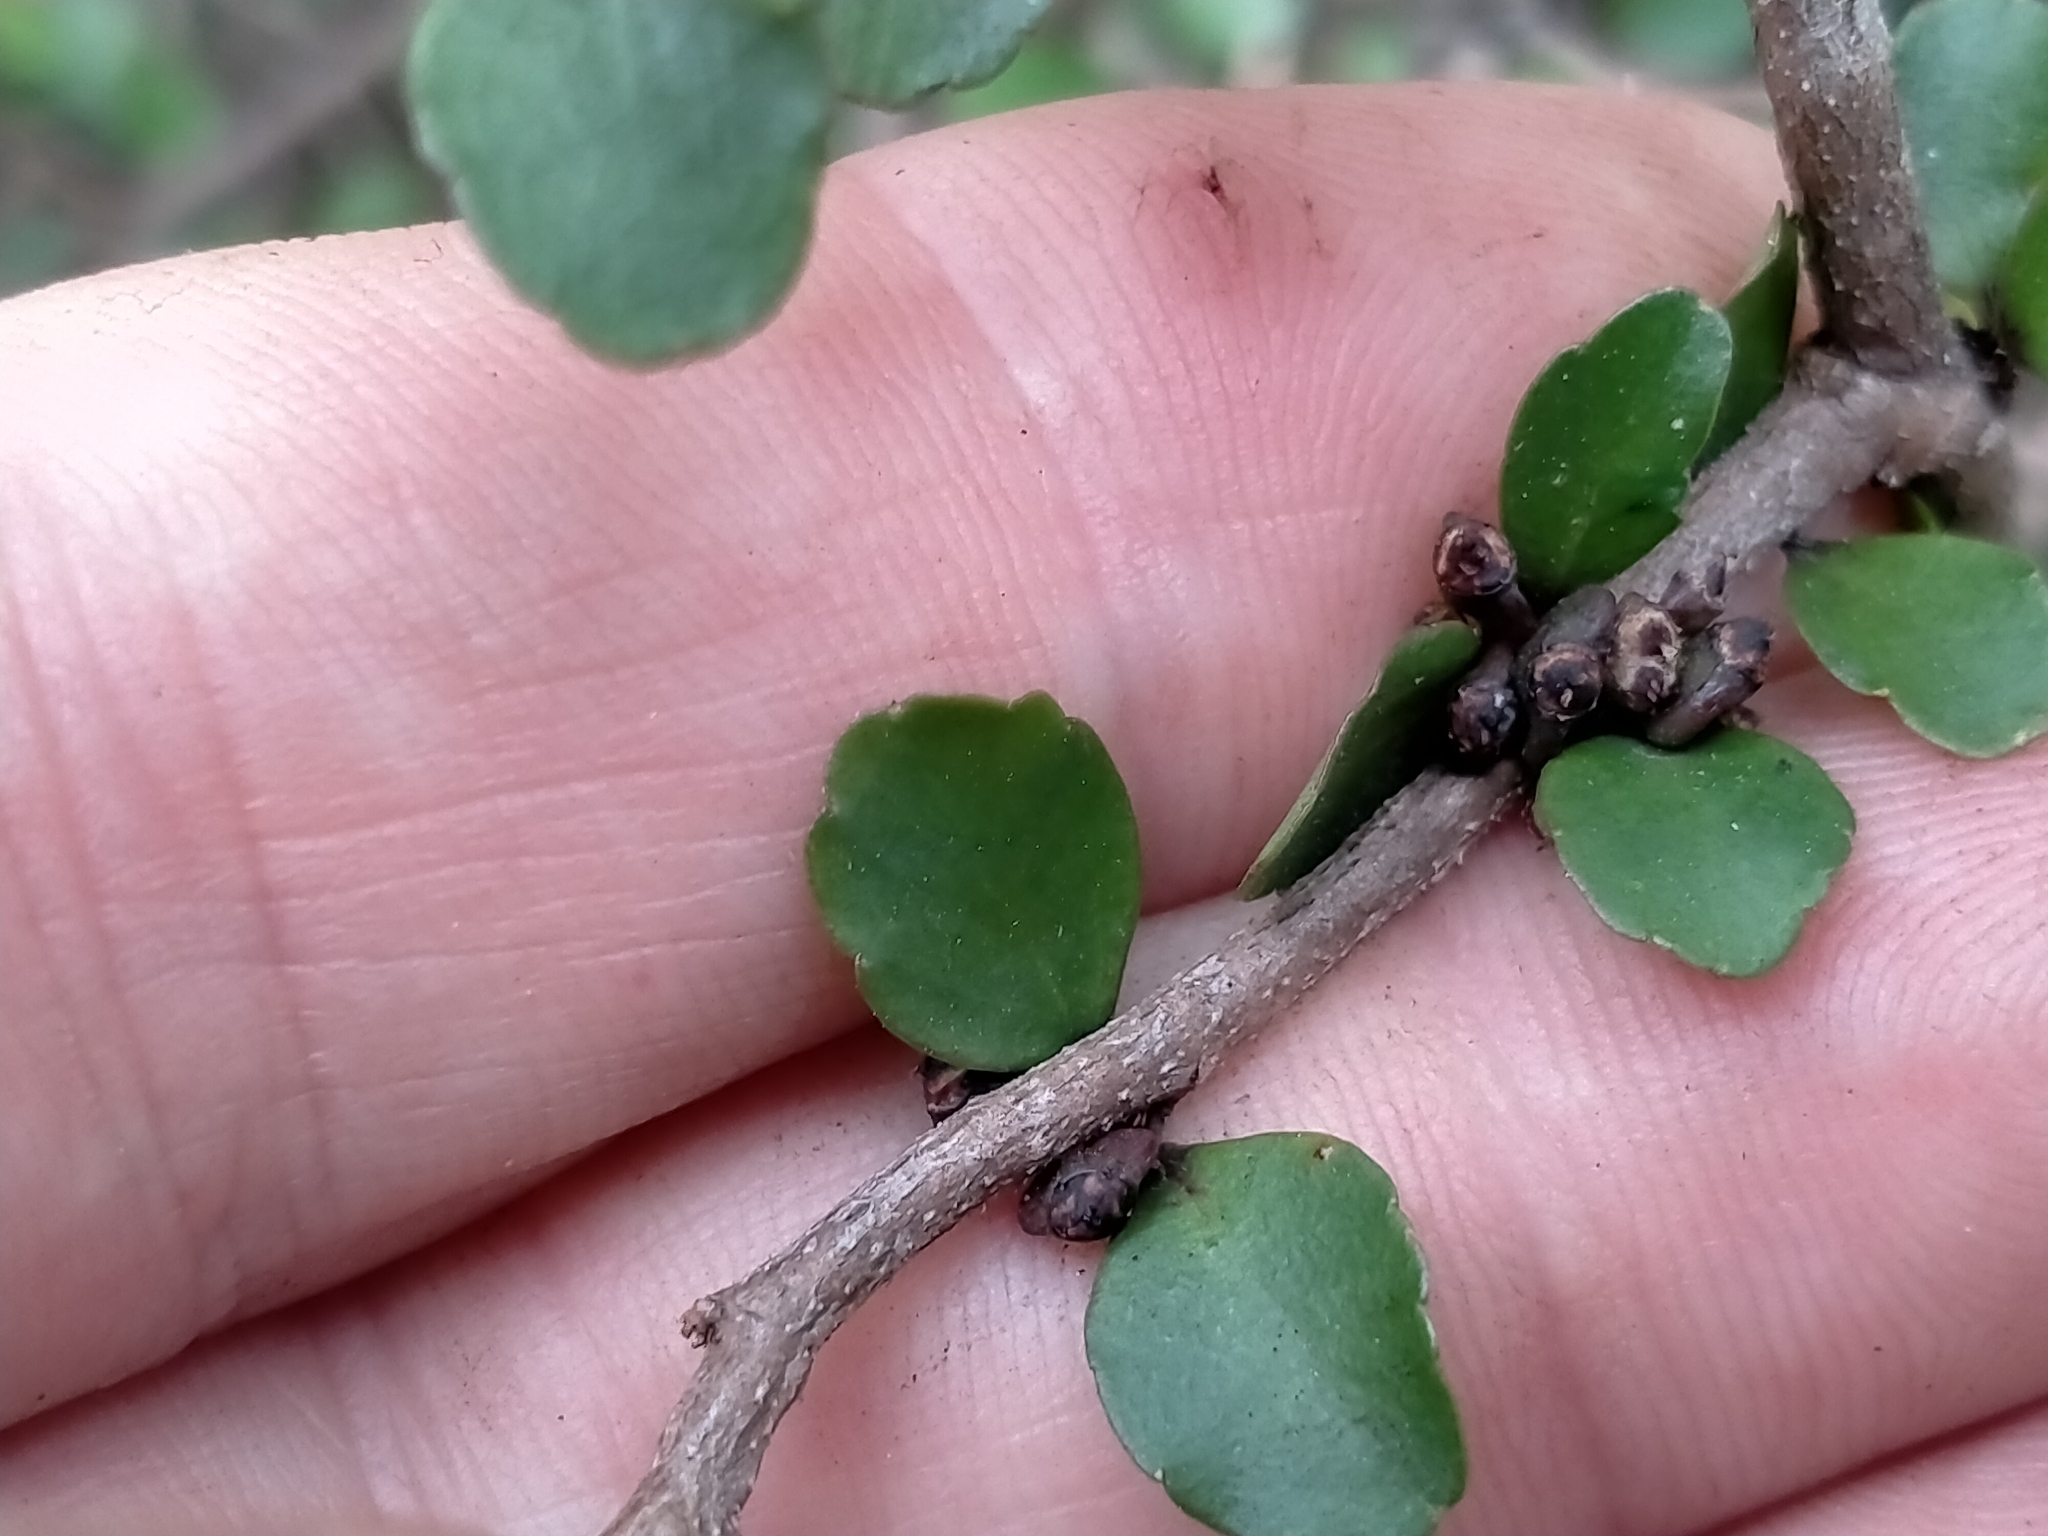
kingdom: Plantae
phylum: Tracheophyta
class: Magnoliopsida
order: Apiales
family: Araliaceae
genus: Raukaua
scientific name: Raukaua anomalus
